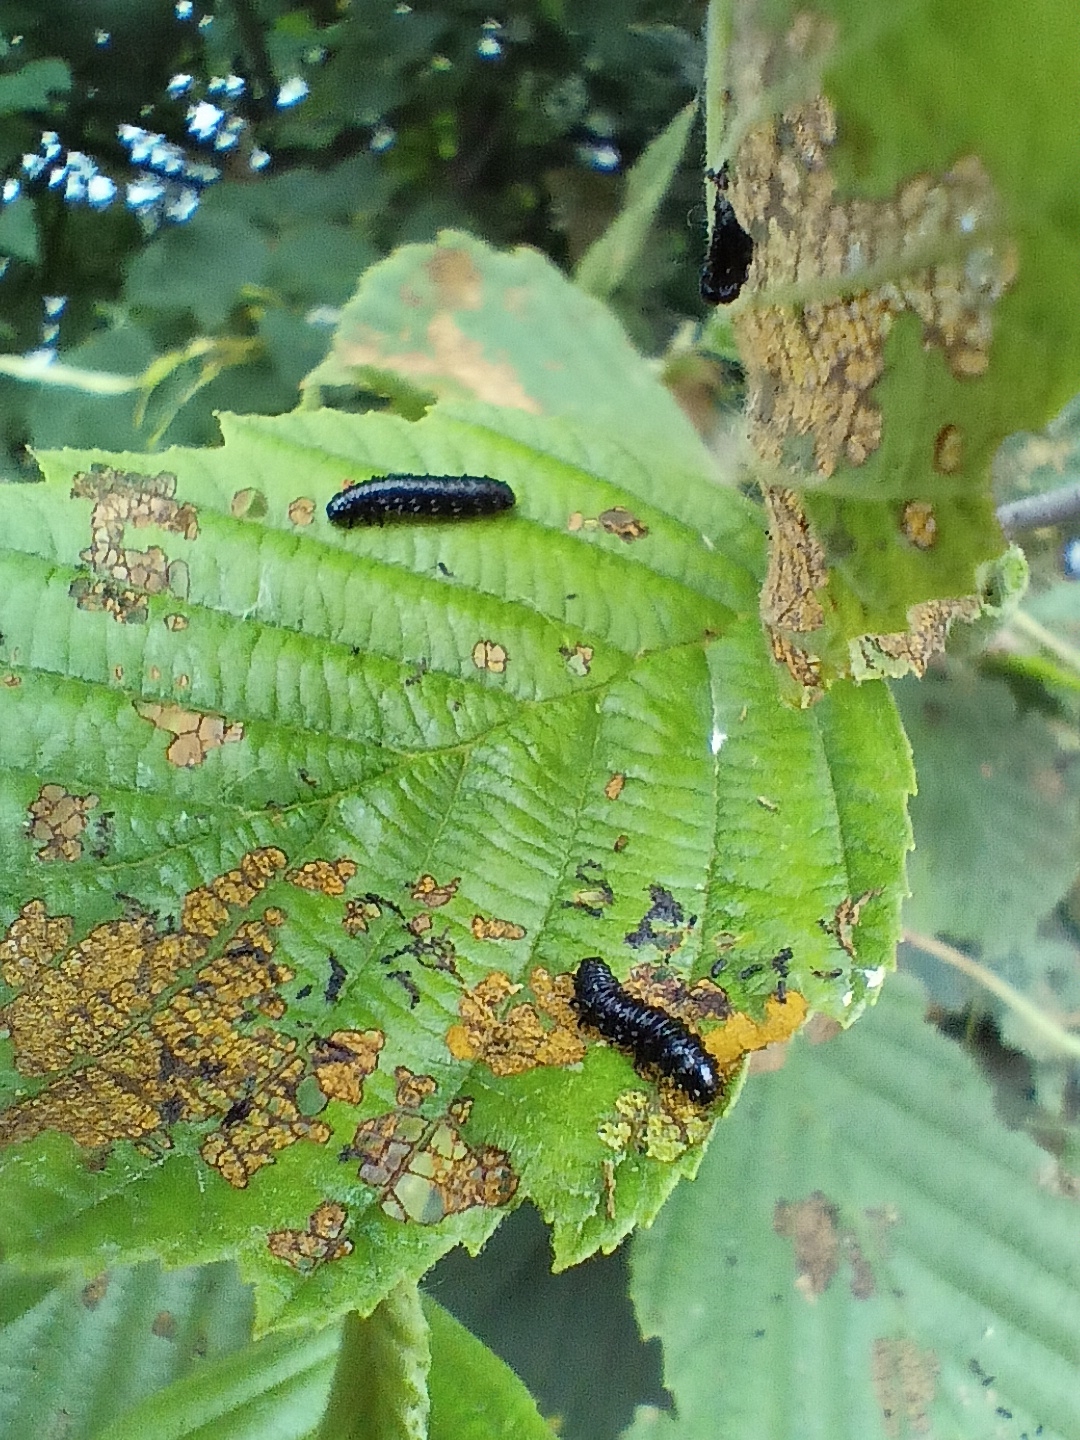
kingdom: Animalia
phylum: Arthropoda
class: Insecta
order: Coleoptera
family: Chrysomelidae
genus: Agelastica
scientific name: Agelastica alni
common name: Alder leaf beetle
